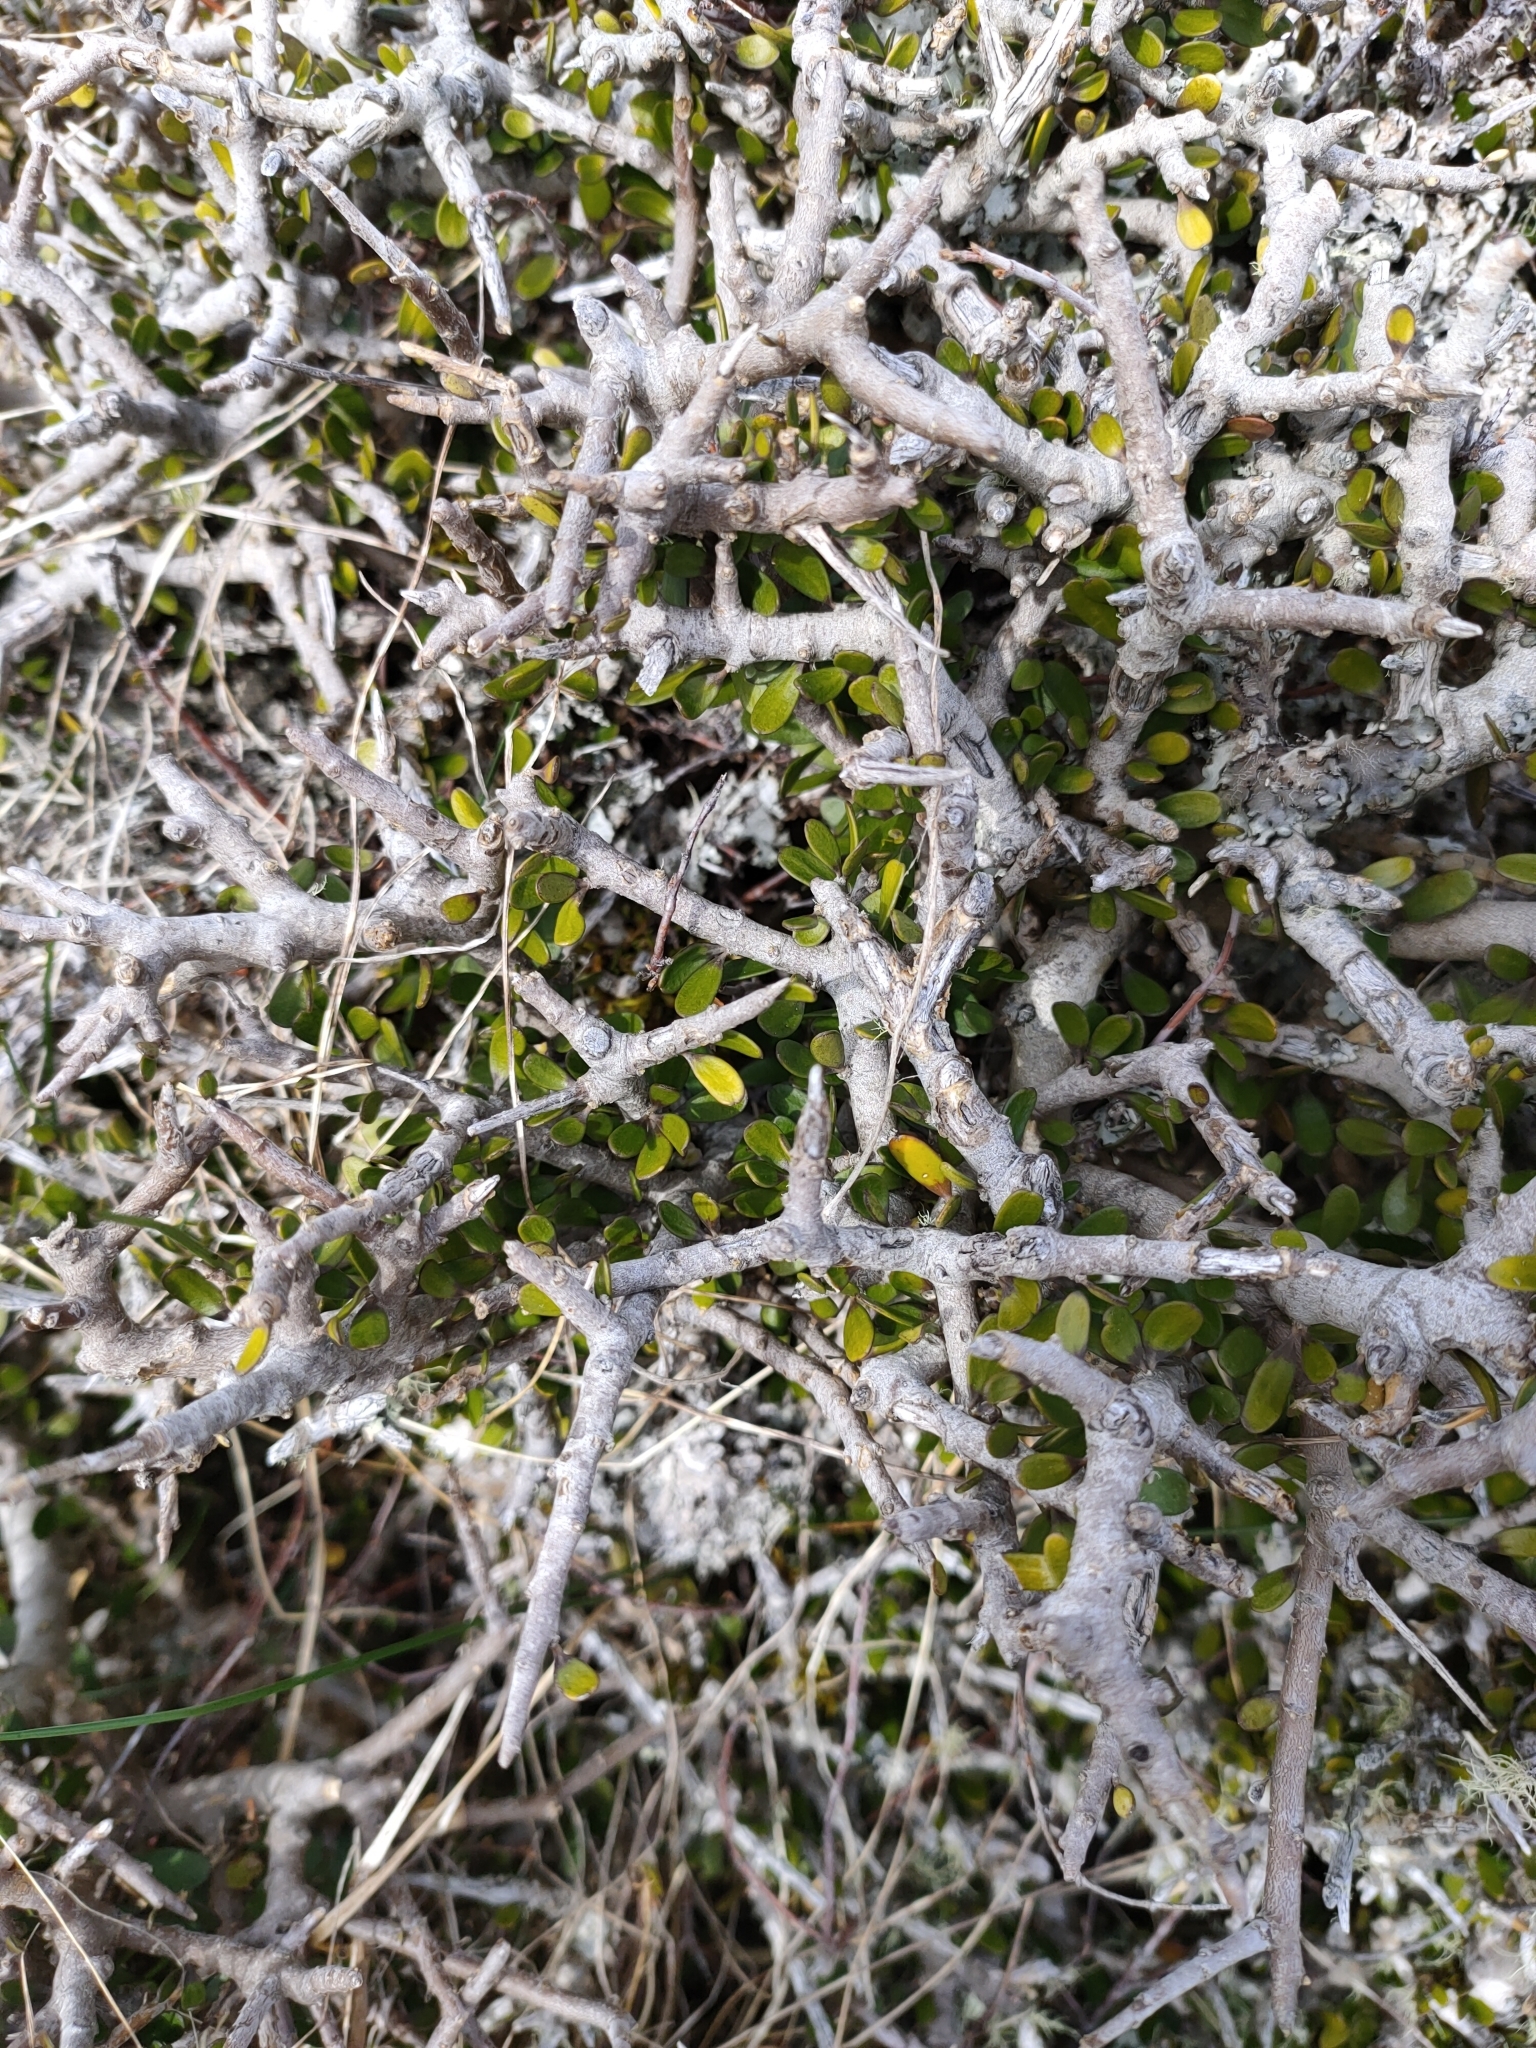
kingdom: Plantae
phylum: Tracheophyta
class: Magnoliopsida
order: Malpighiales
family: Violaceae
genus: Melicytus
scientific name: Melicytus alpinus
